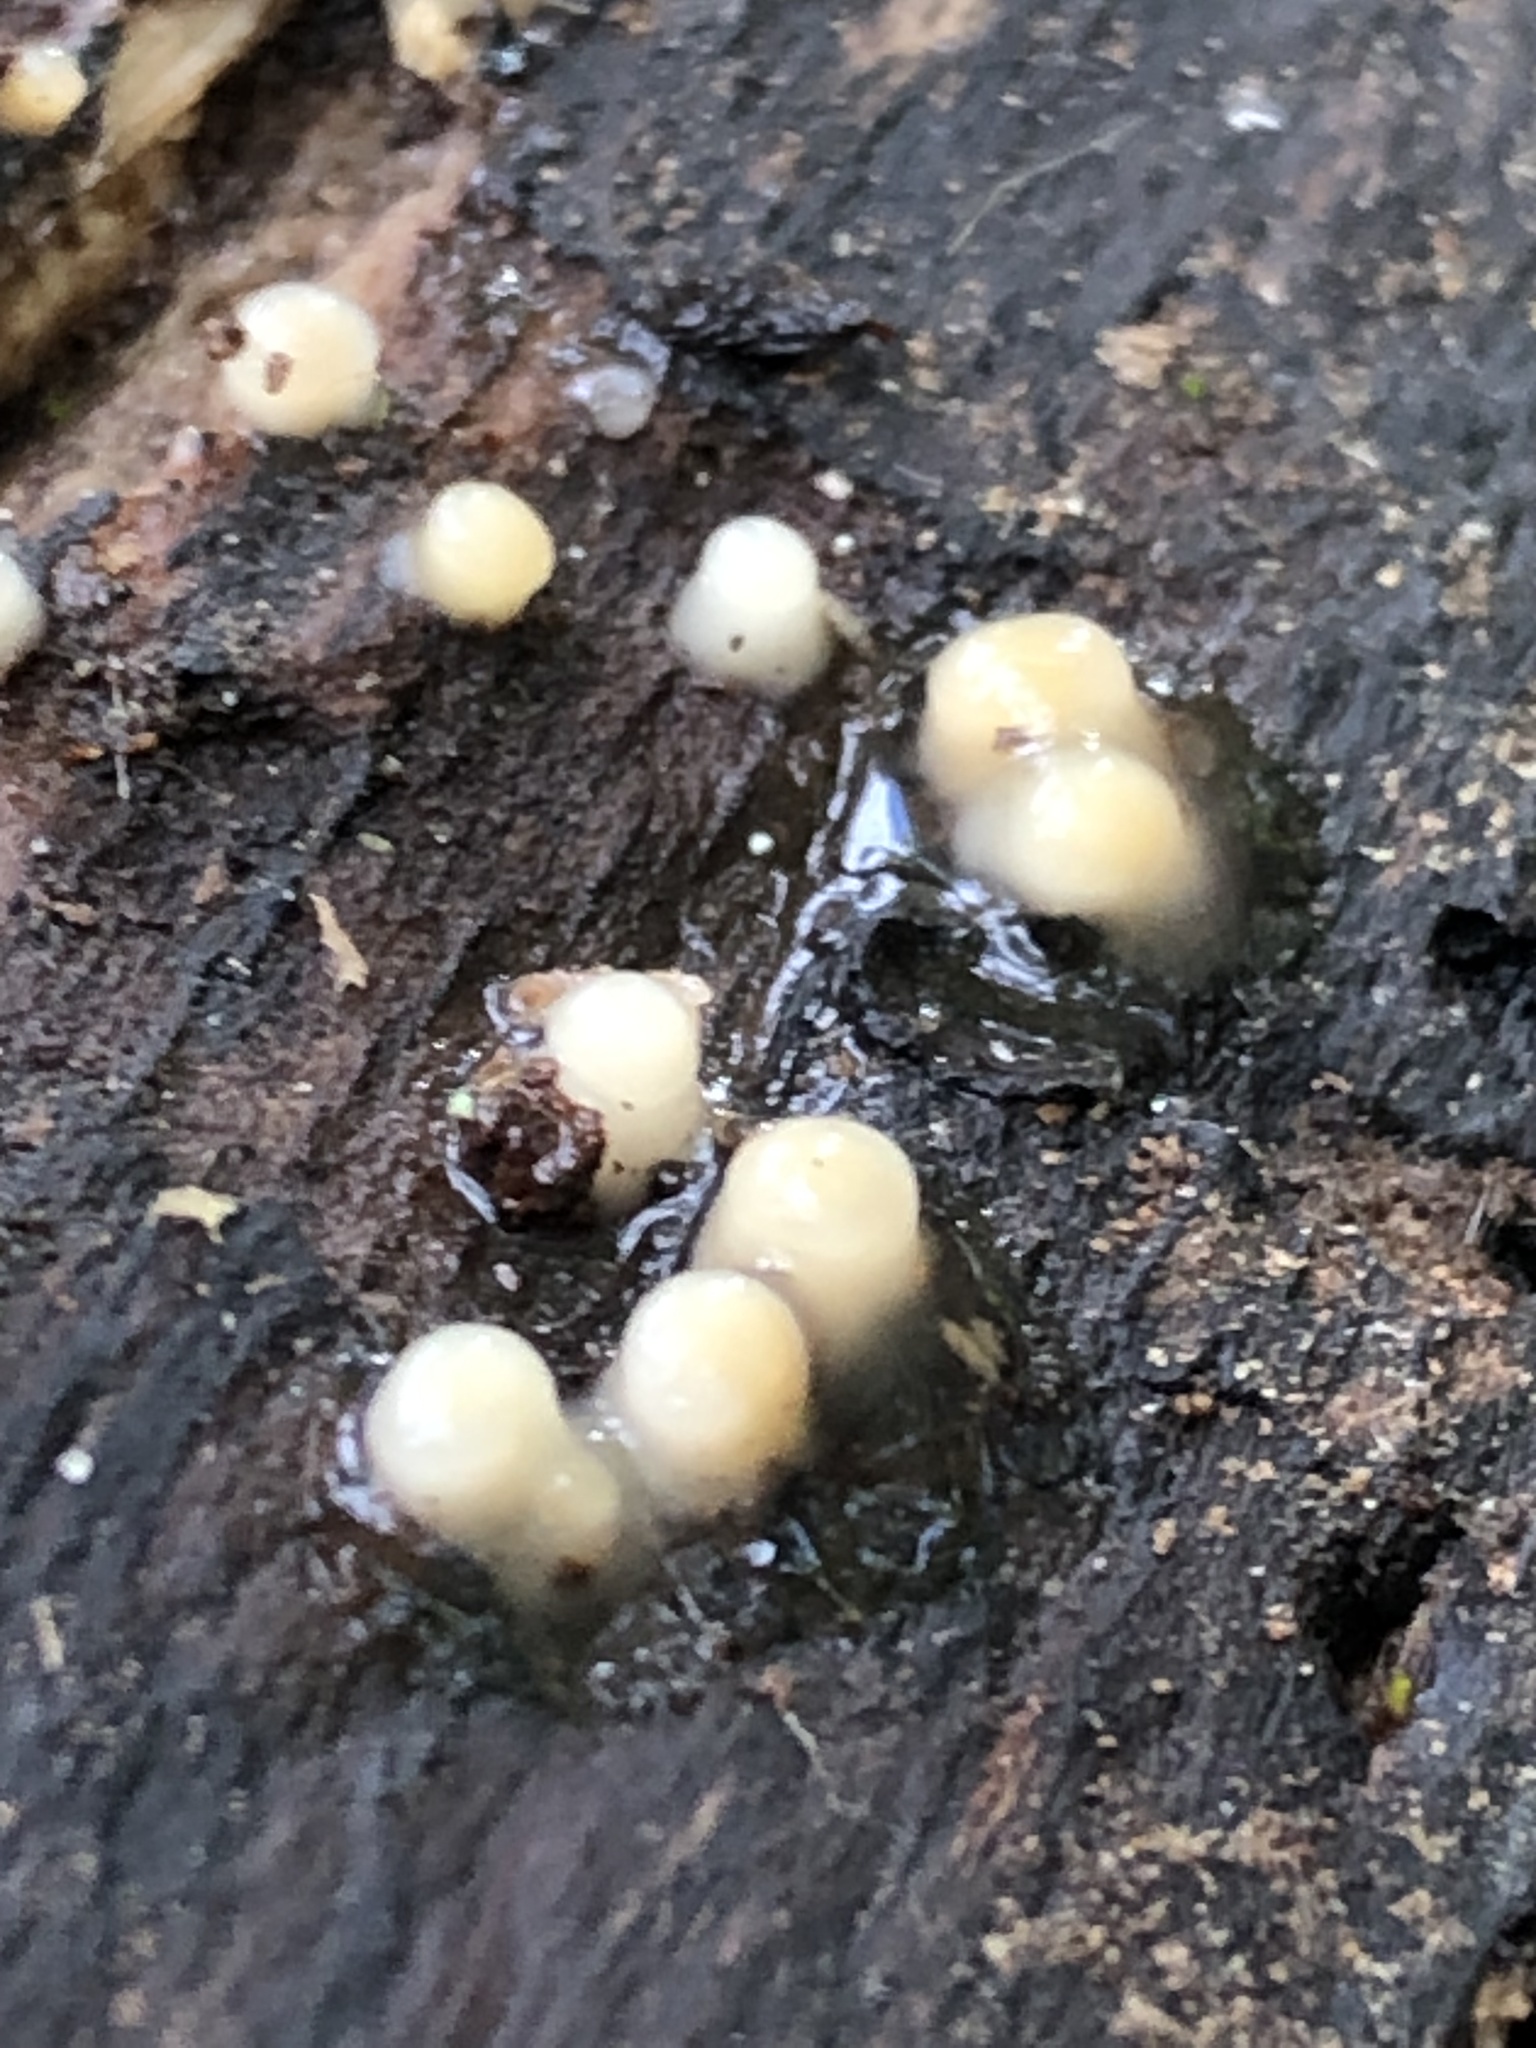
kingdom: Fungi
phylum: Basidiomycota
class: Atractiellomycetes
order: Atractiellales
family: Phleogenaceae
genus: Helicogloea
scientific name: Helicogloea compressa
